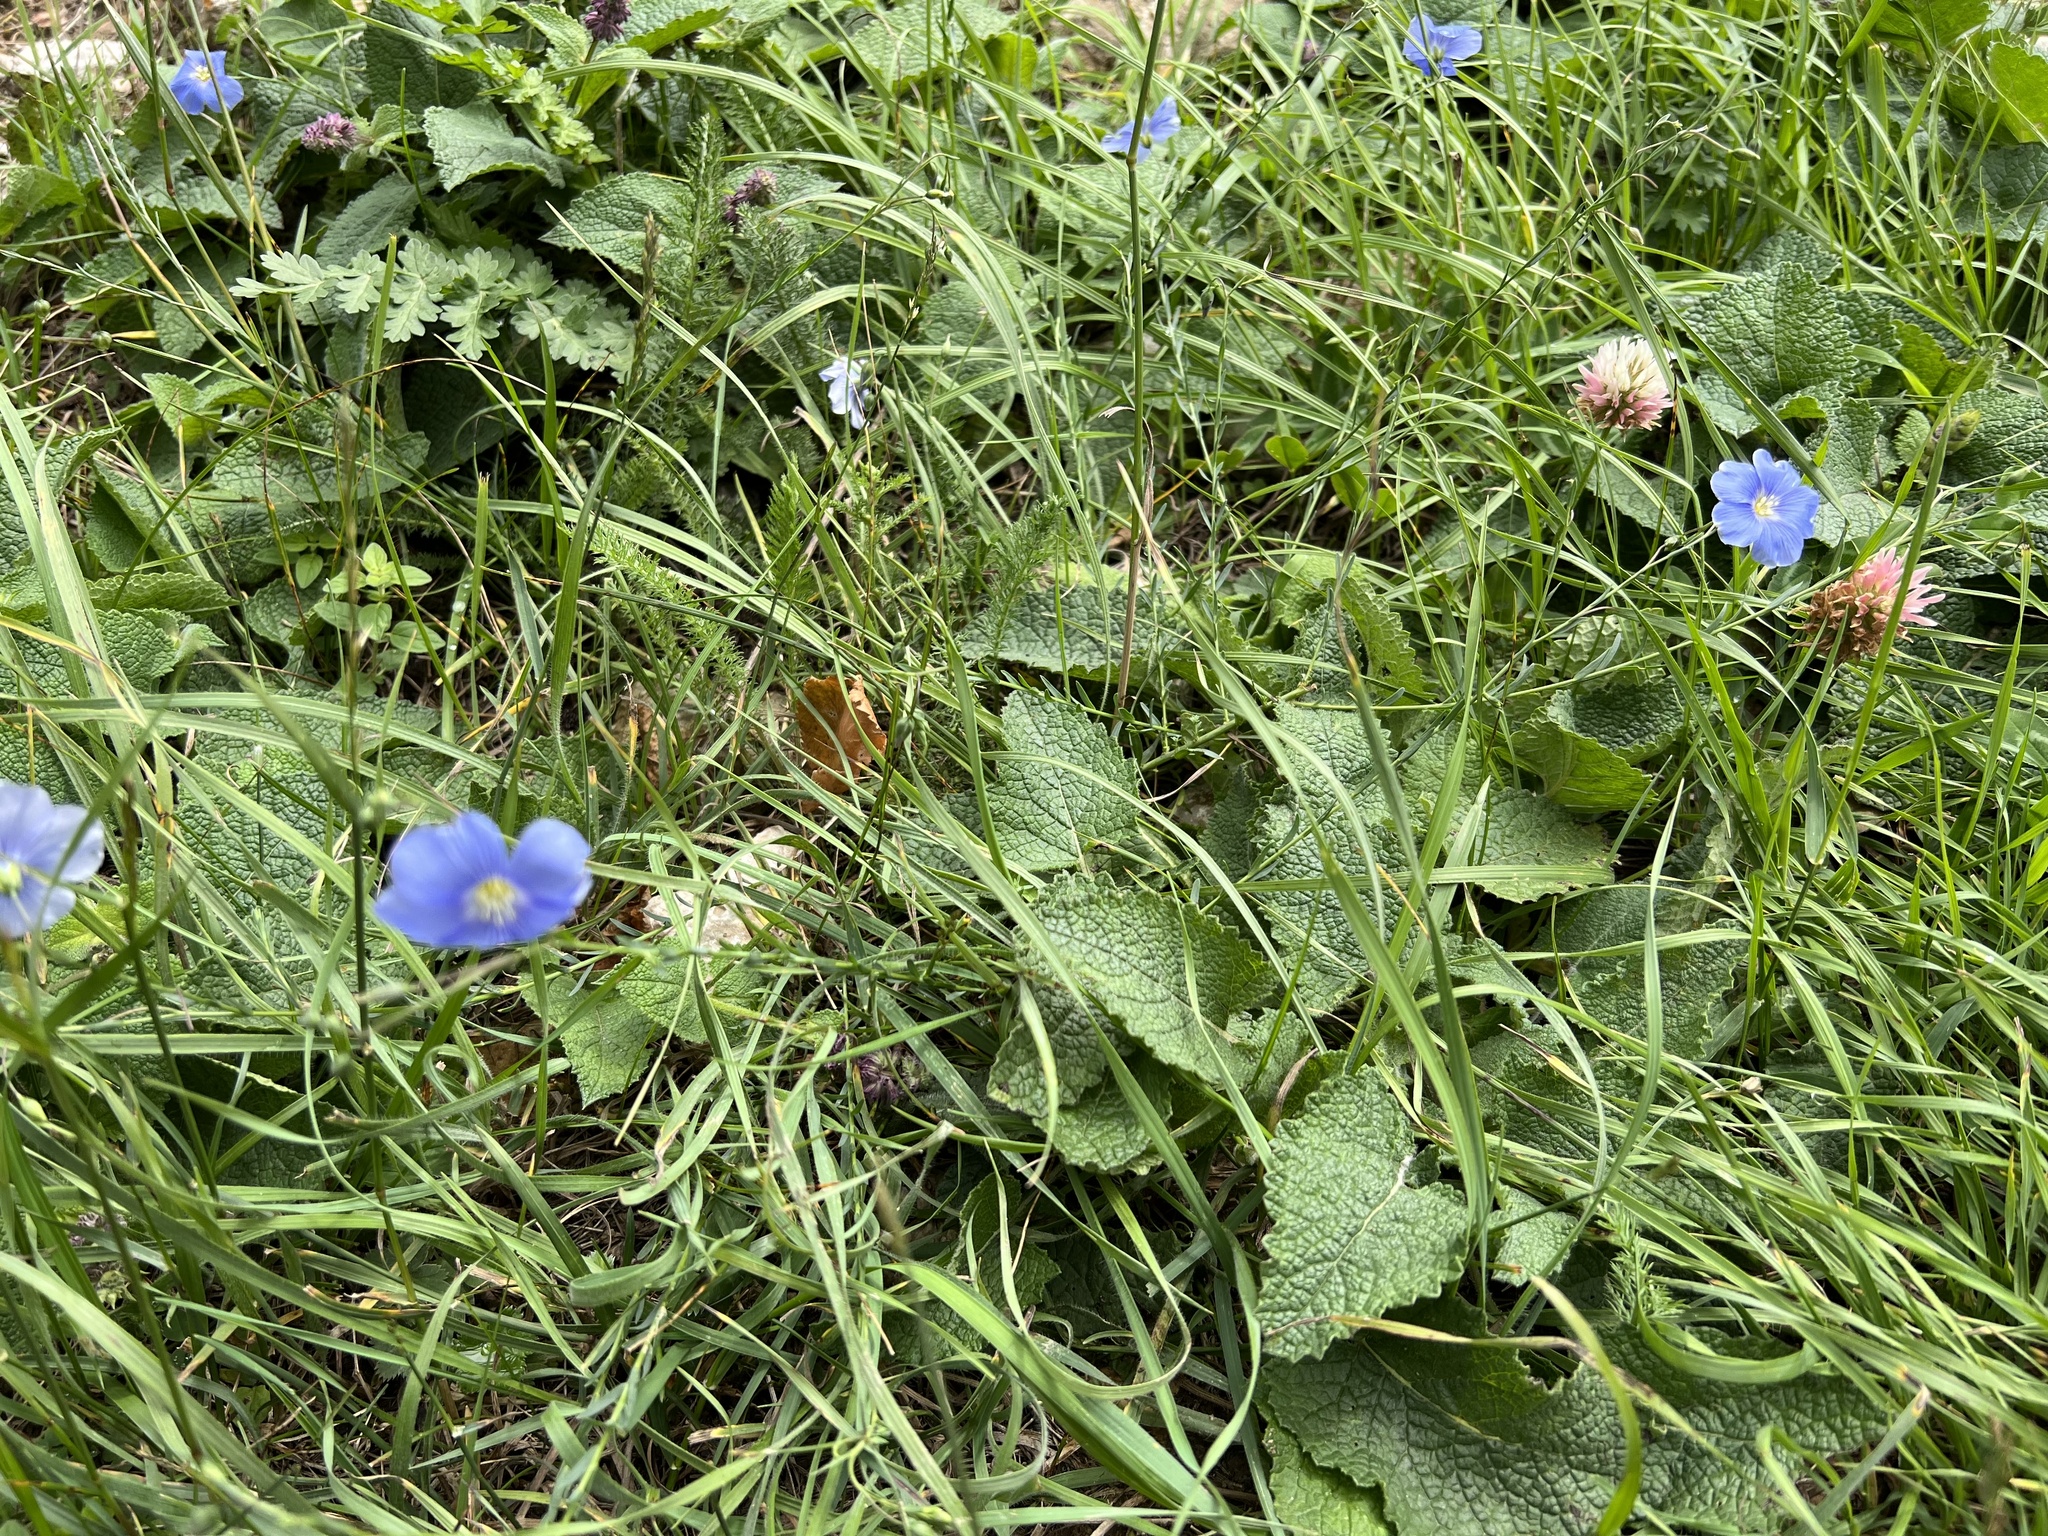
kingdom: Plantae
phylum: Tracheophyta
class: Magnoliopsida
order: Malpighiales
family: Linaceae
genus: Linum
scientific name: Linum austriacum
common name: Austrian flax
